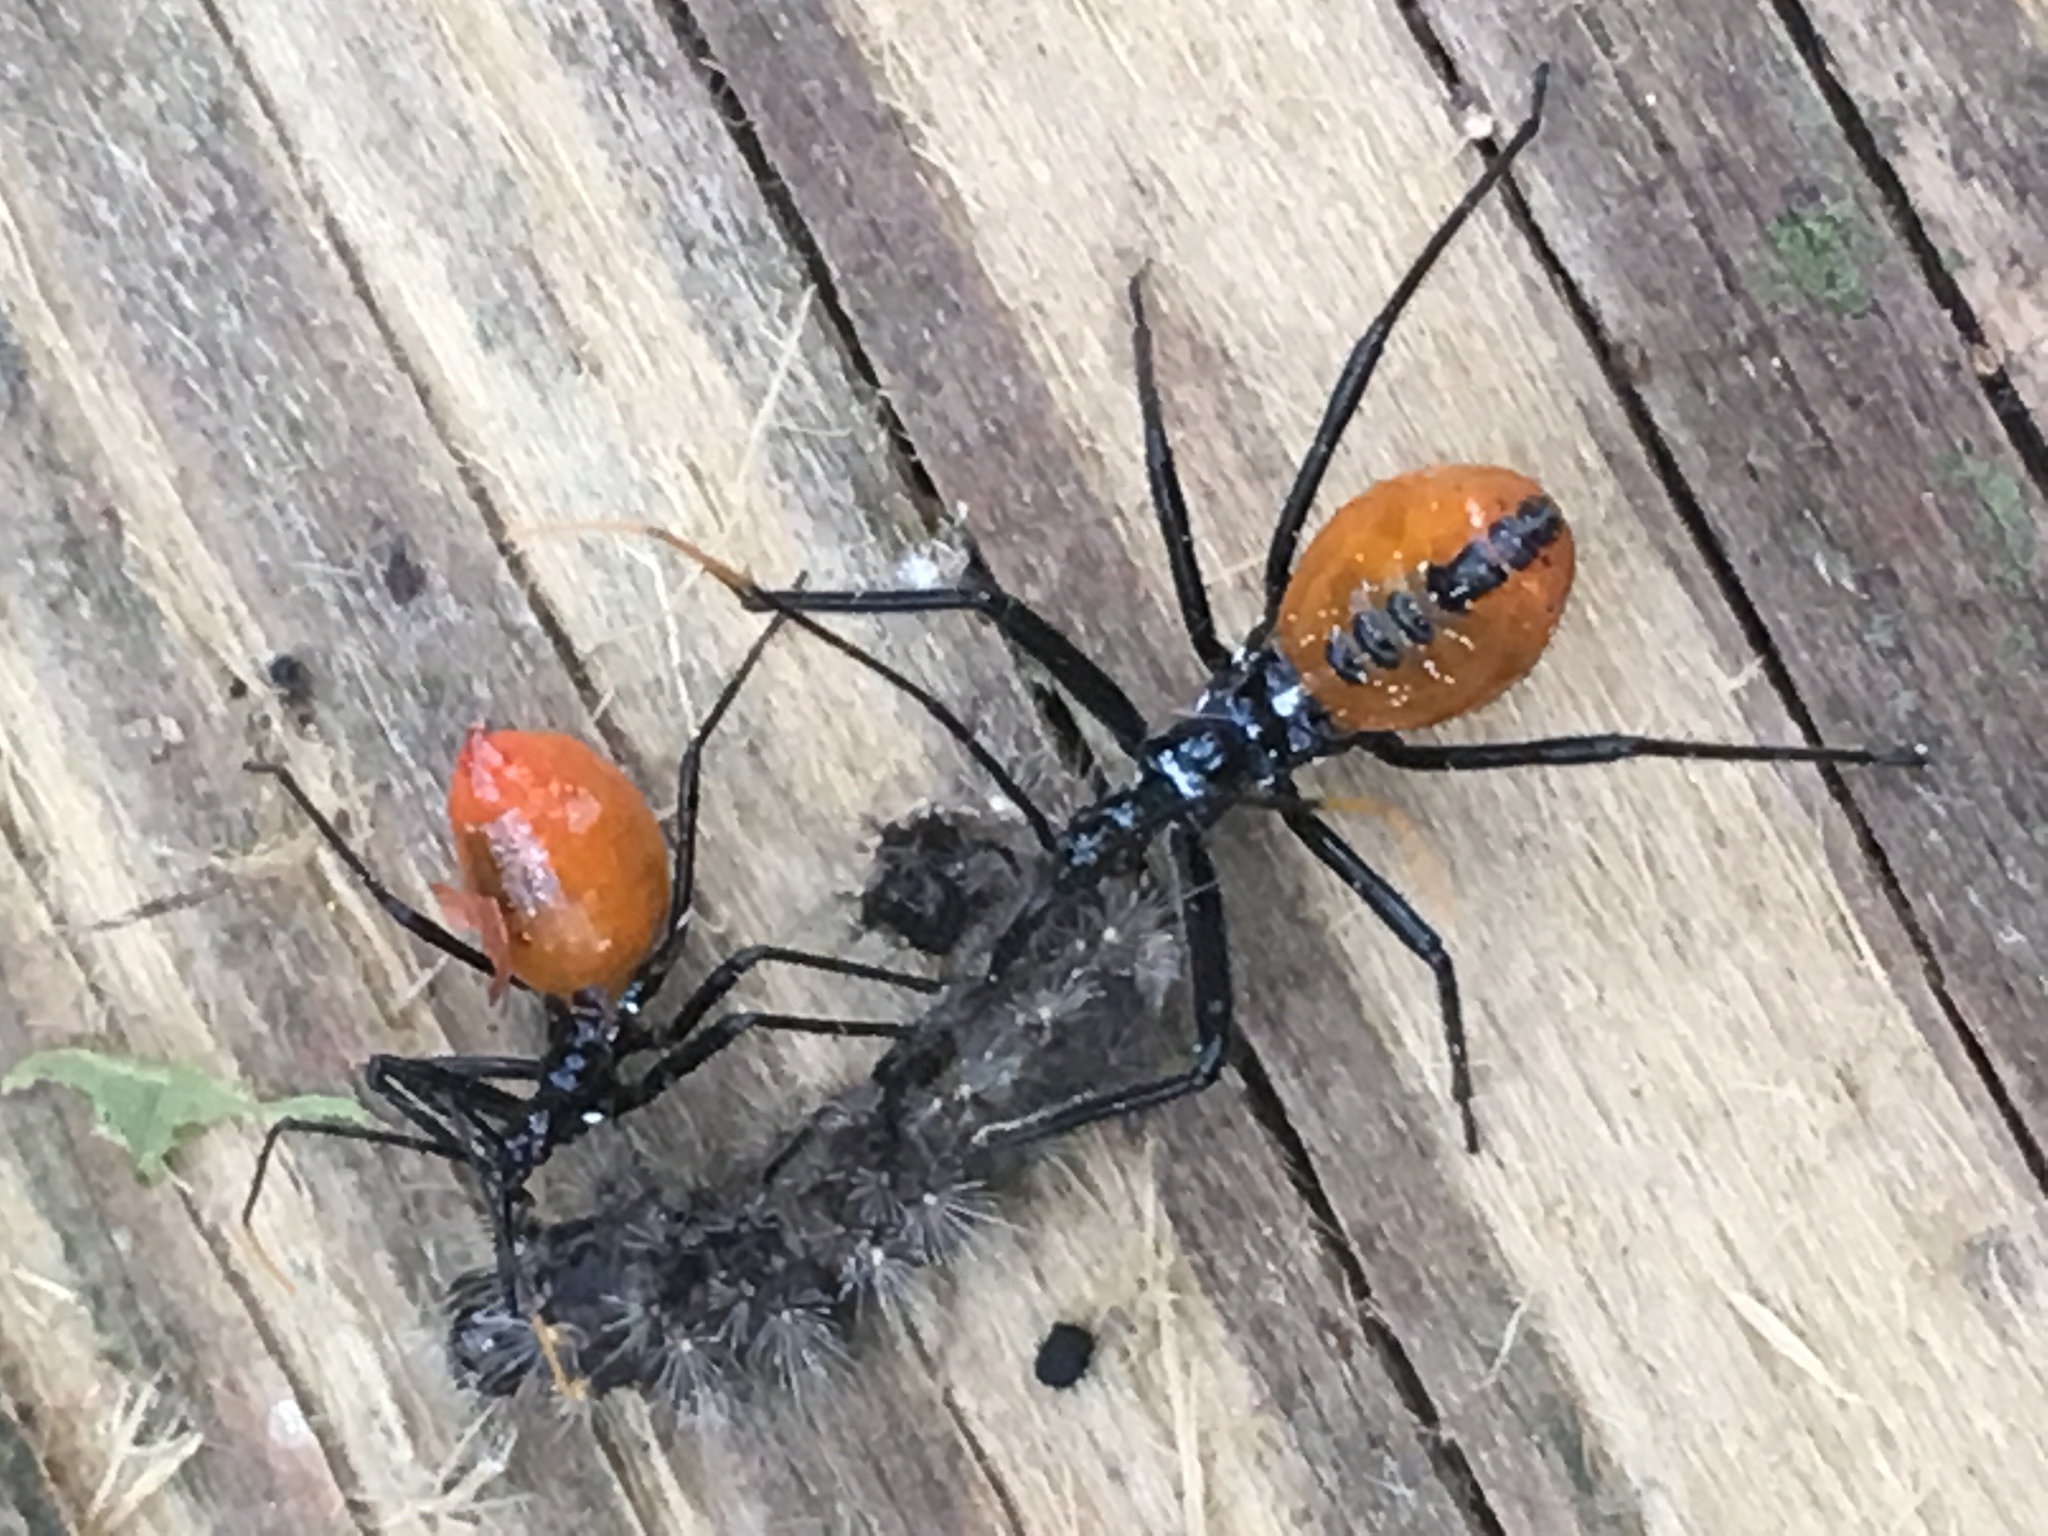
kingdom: Animalia
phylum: Arthropoda
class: Insecta
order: Hemiptera
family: Reduviidae
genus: Arilus
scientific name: Arilus cristatus
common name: North american wheel bug
